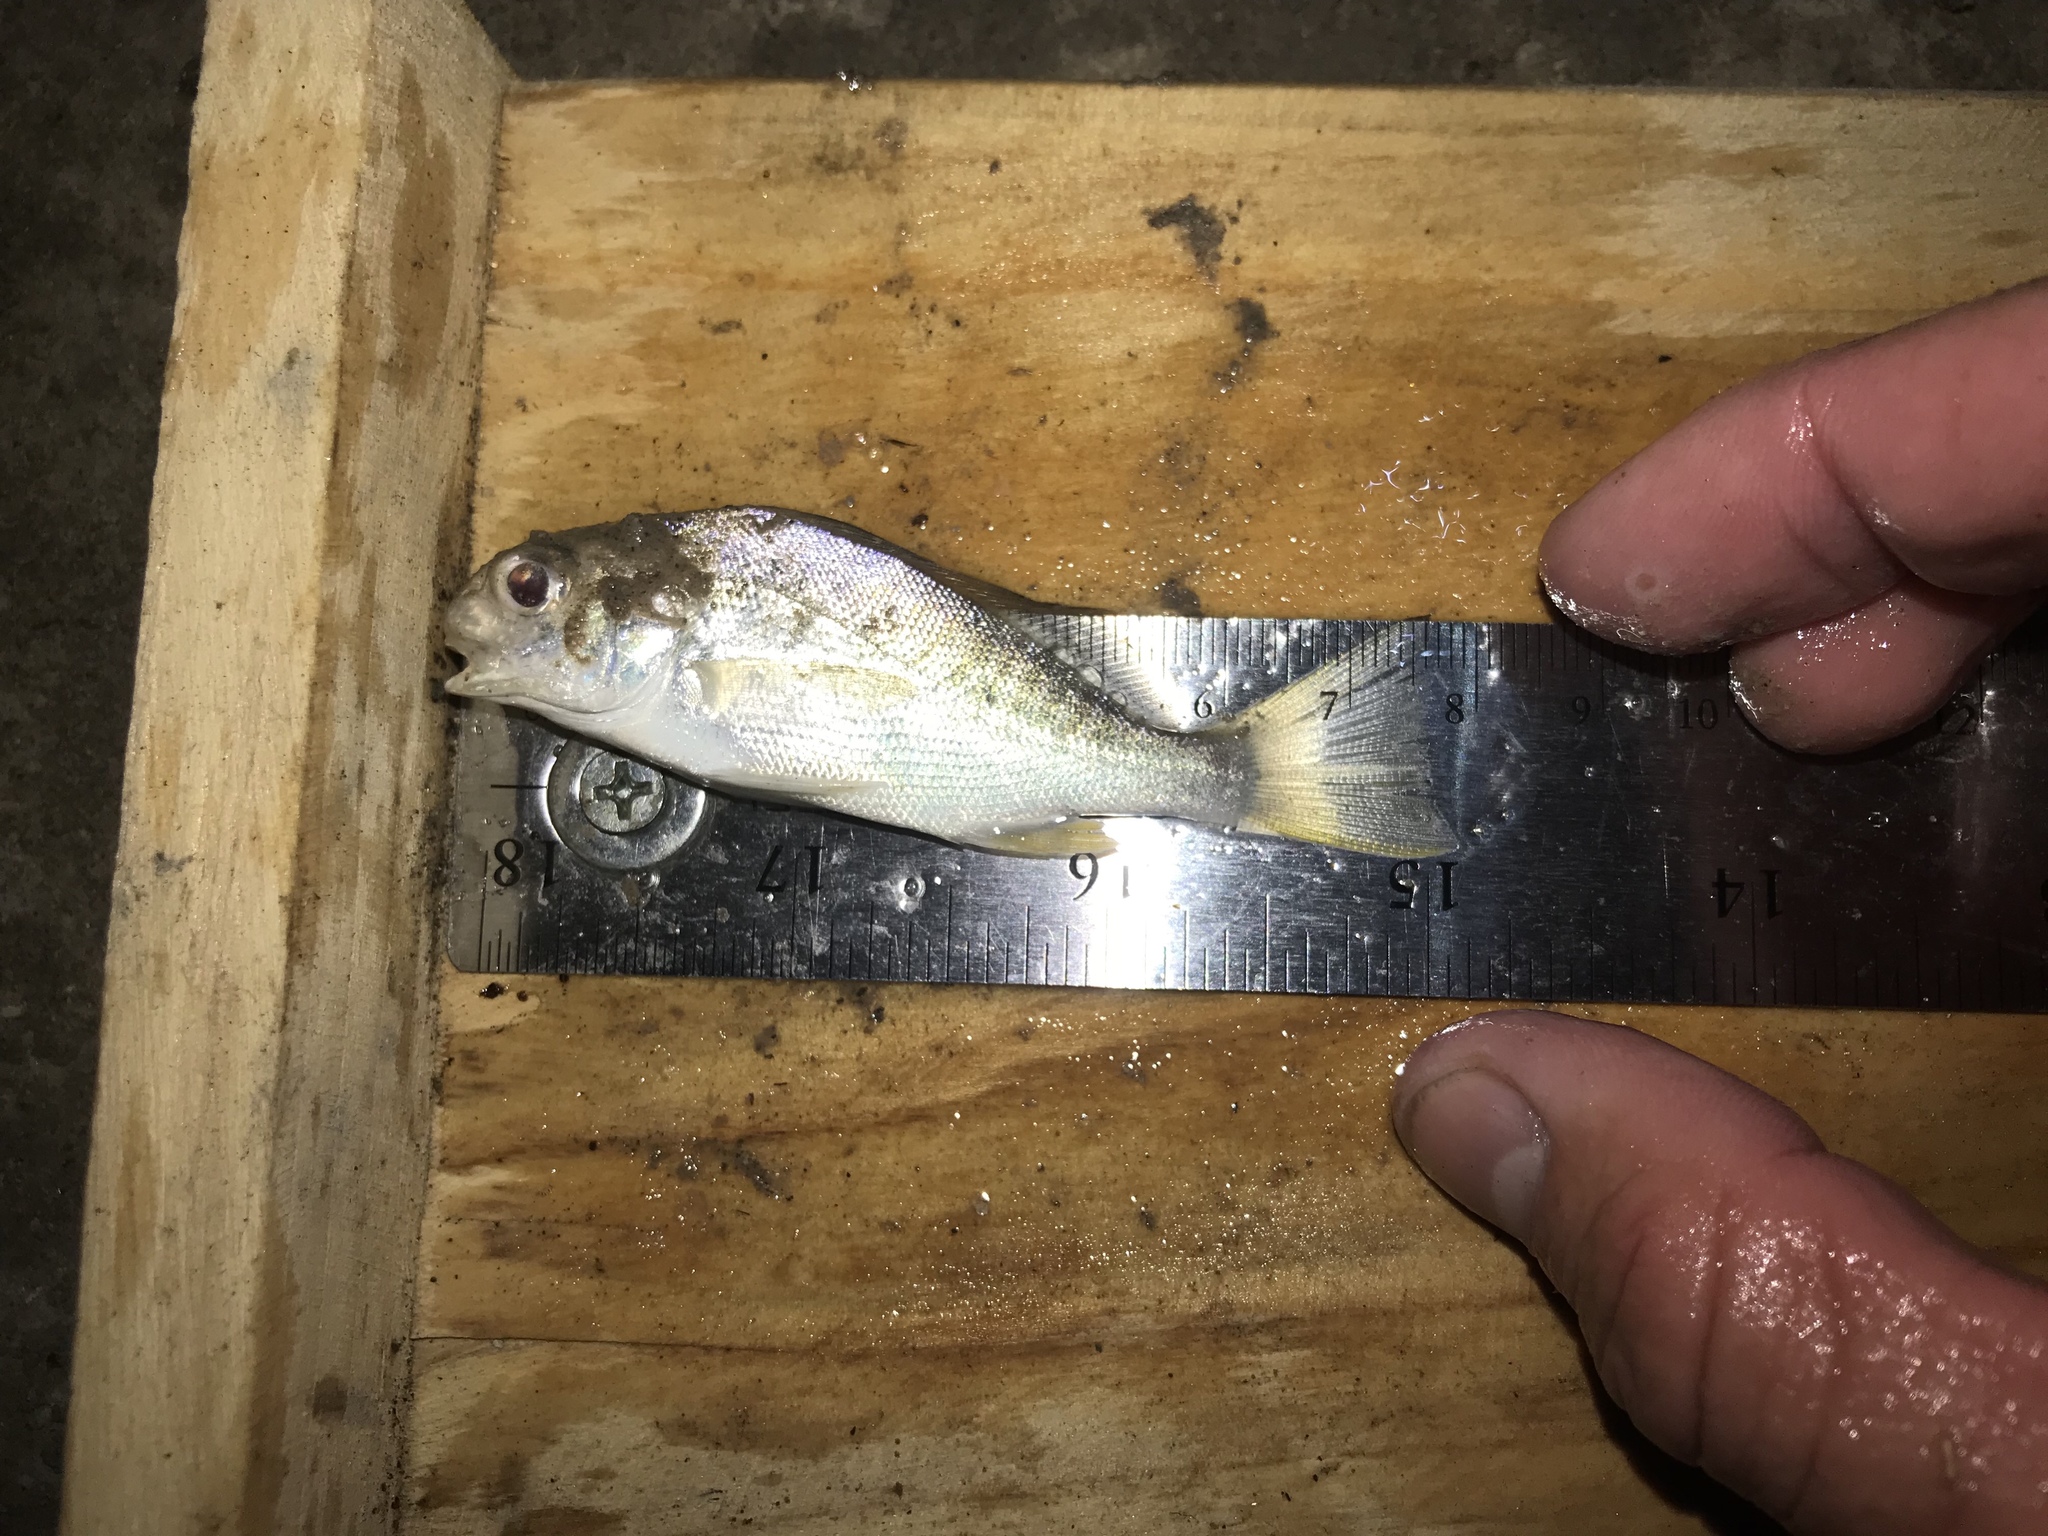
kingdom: Animalia
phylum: Chordata
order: Perciformes
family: Sciaenidae
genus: Leiostomus
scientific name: Leiostomus xanthurus
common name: Spot
